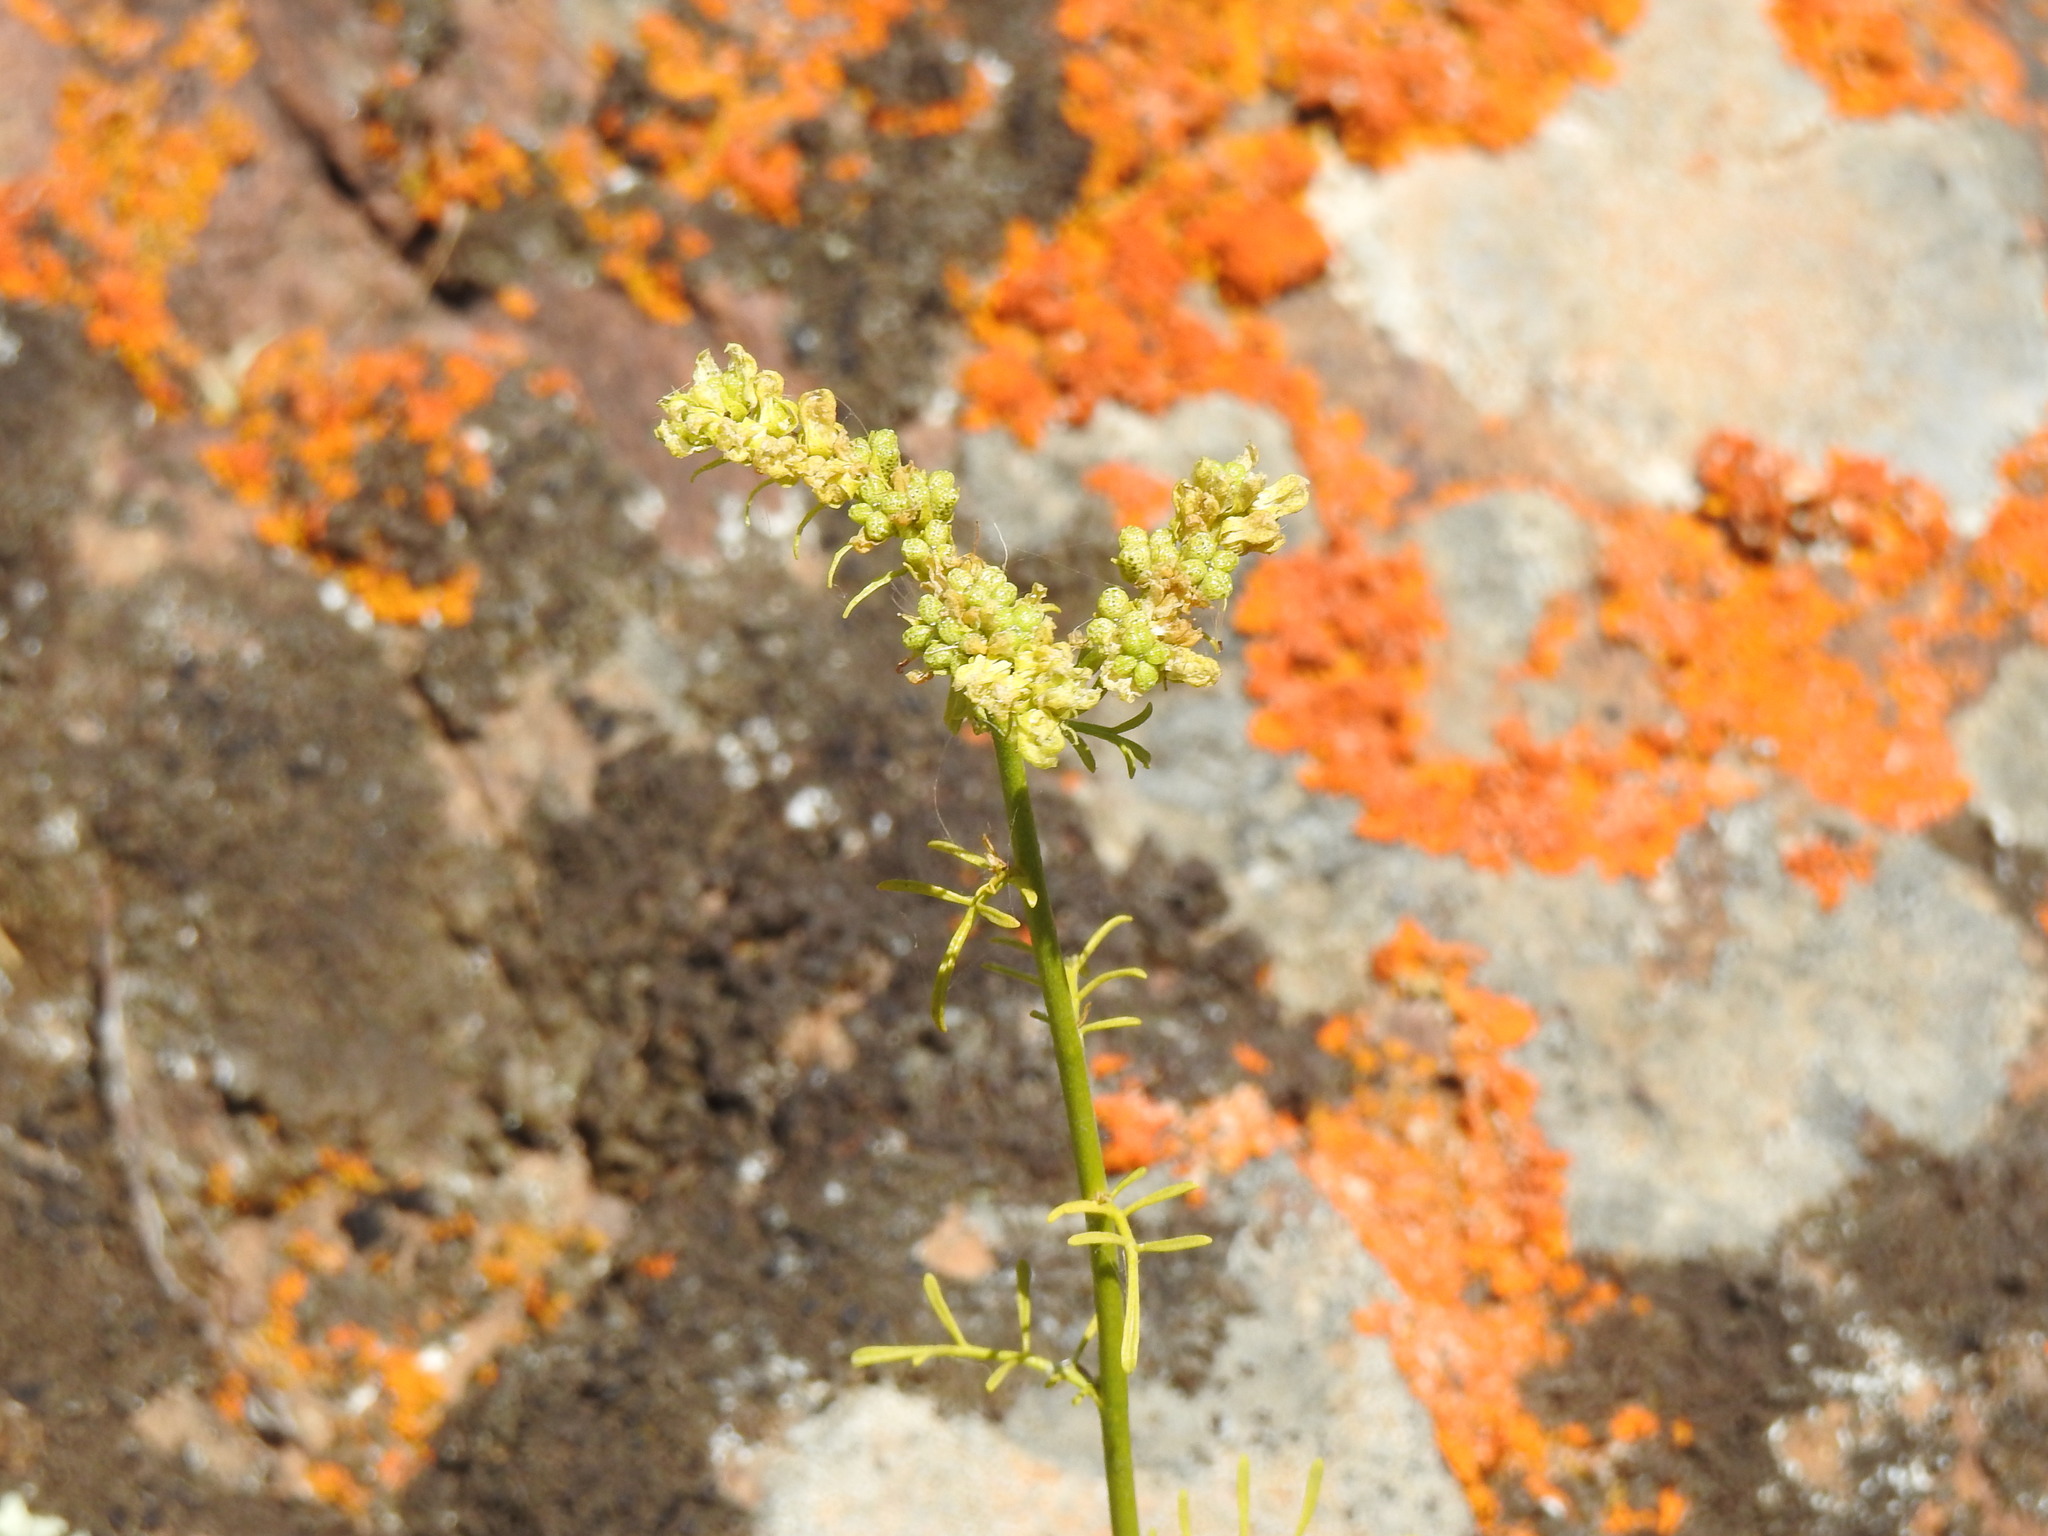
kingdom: Plantae
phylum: Tracheophyta
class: Magnoliopsida
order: Sapindales
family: Rutaceae
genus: Ruta
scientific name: Ruta montana
